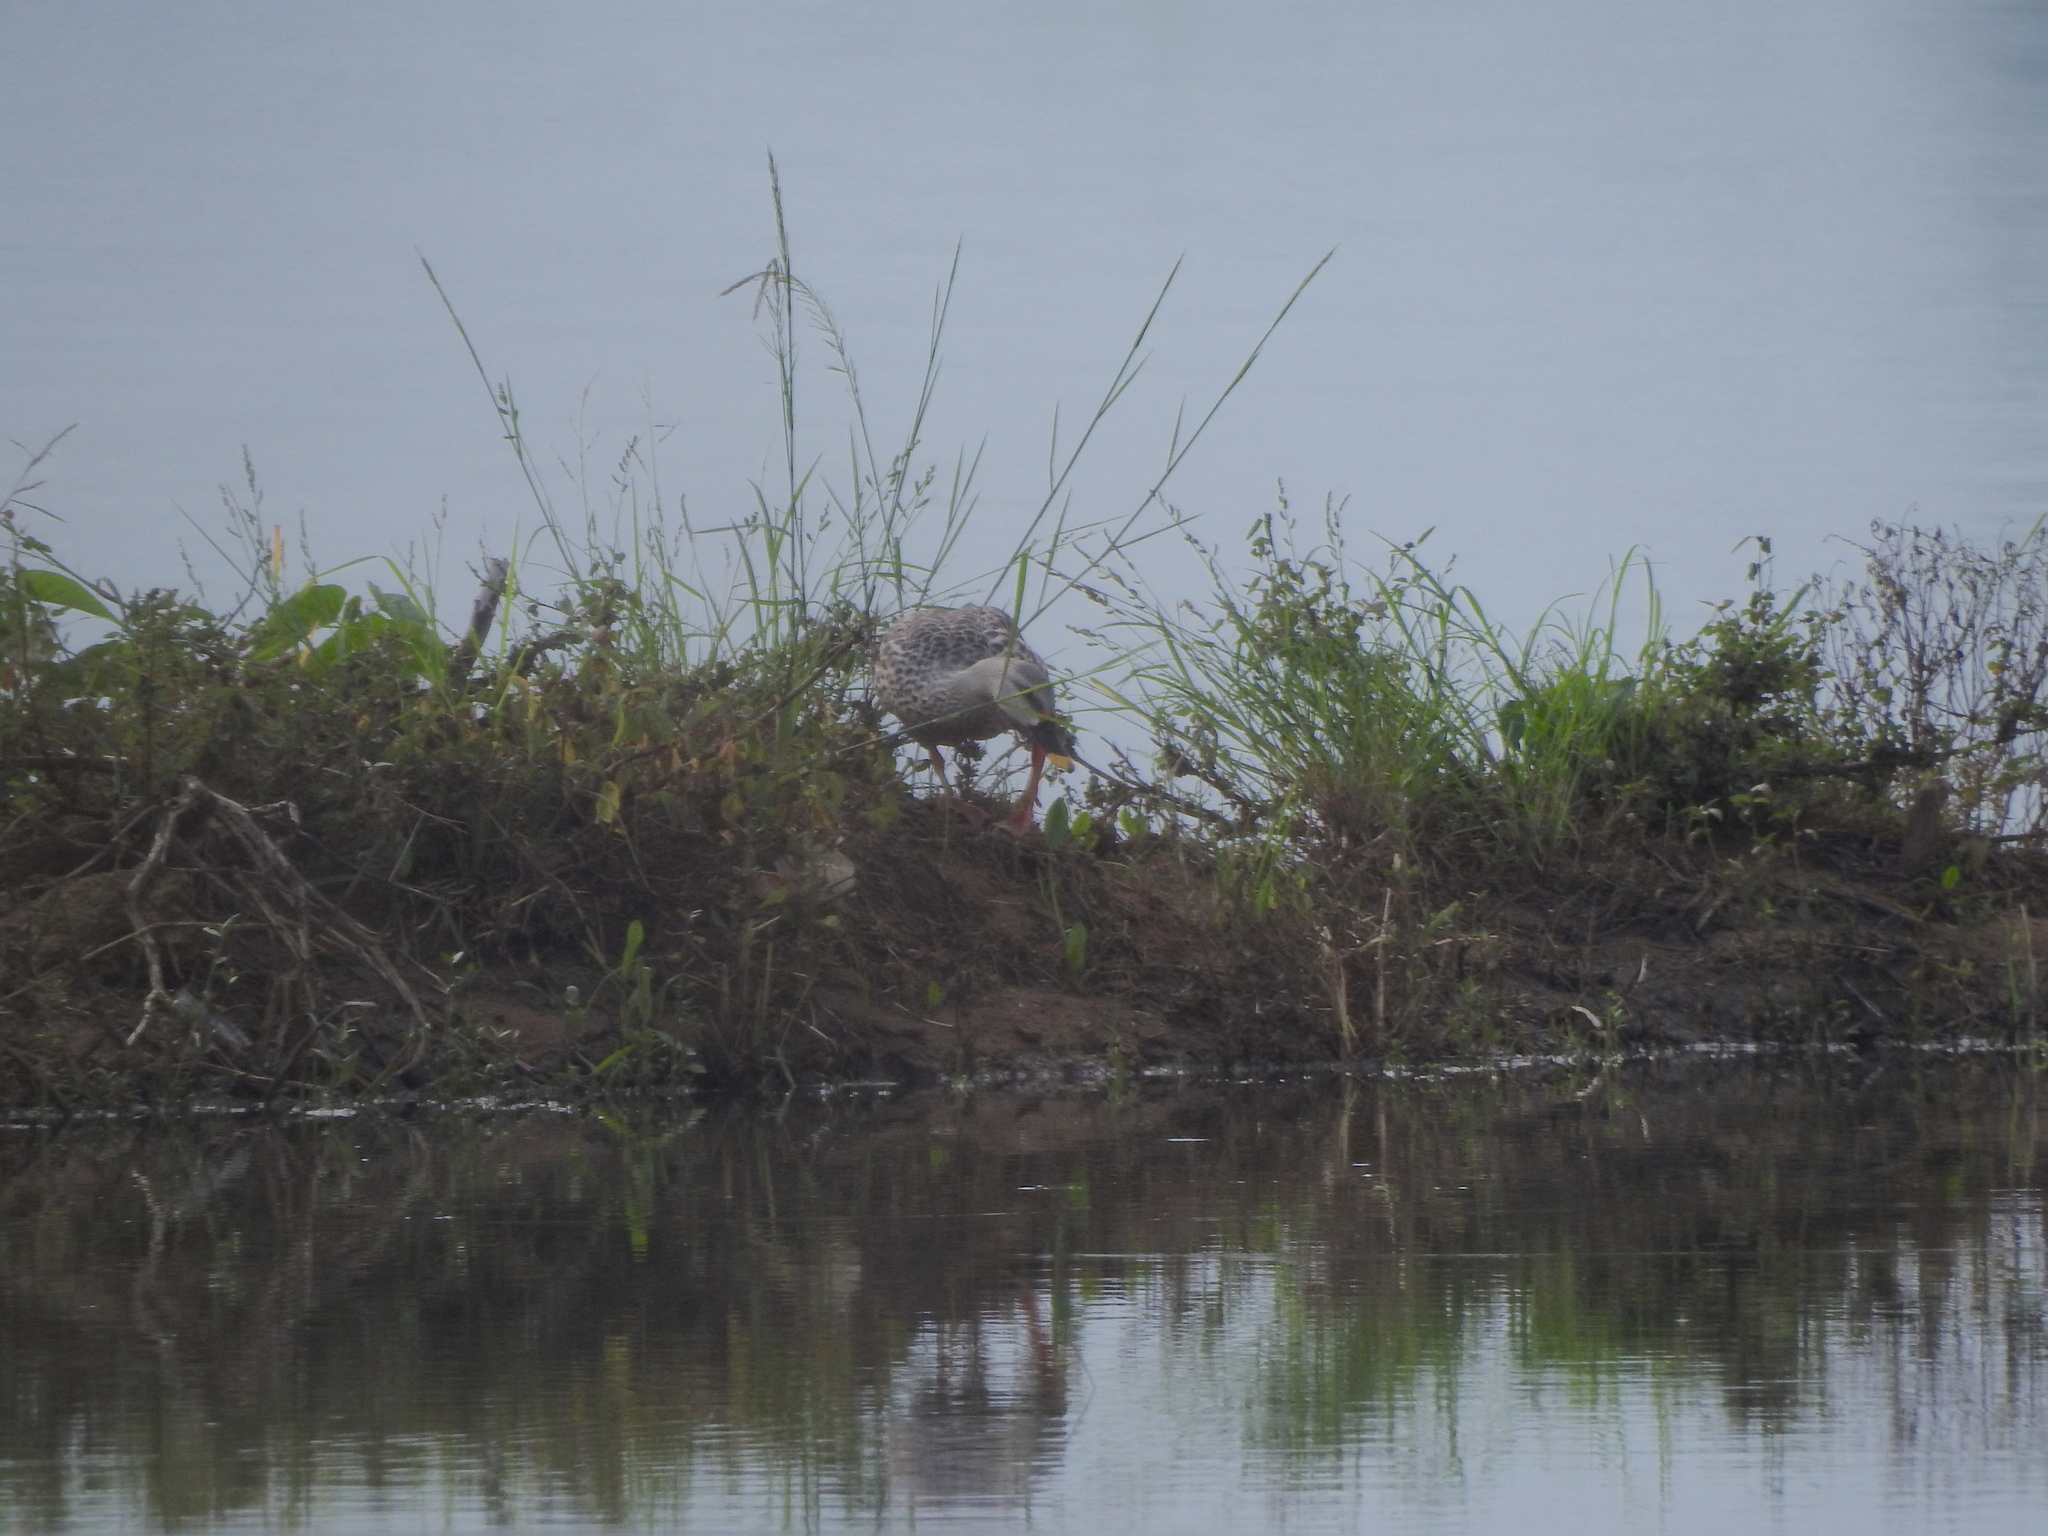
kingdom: Animalia
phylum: Chordata
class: Aves
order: Anseriformes
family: Anatidae
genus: Anas
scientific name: Anas poecilorhyncha
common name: Indian spot-billed duck
